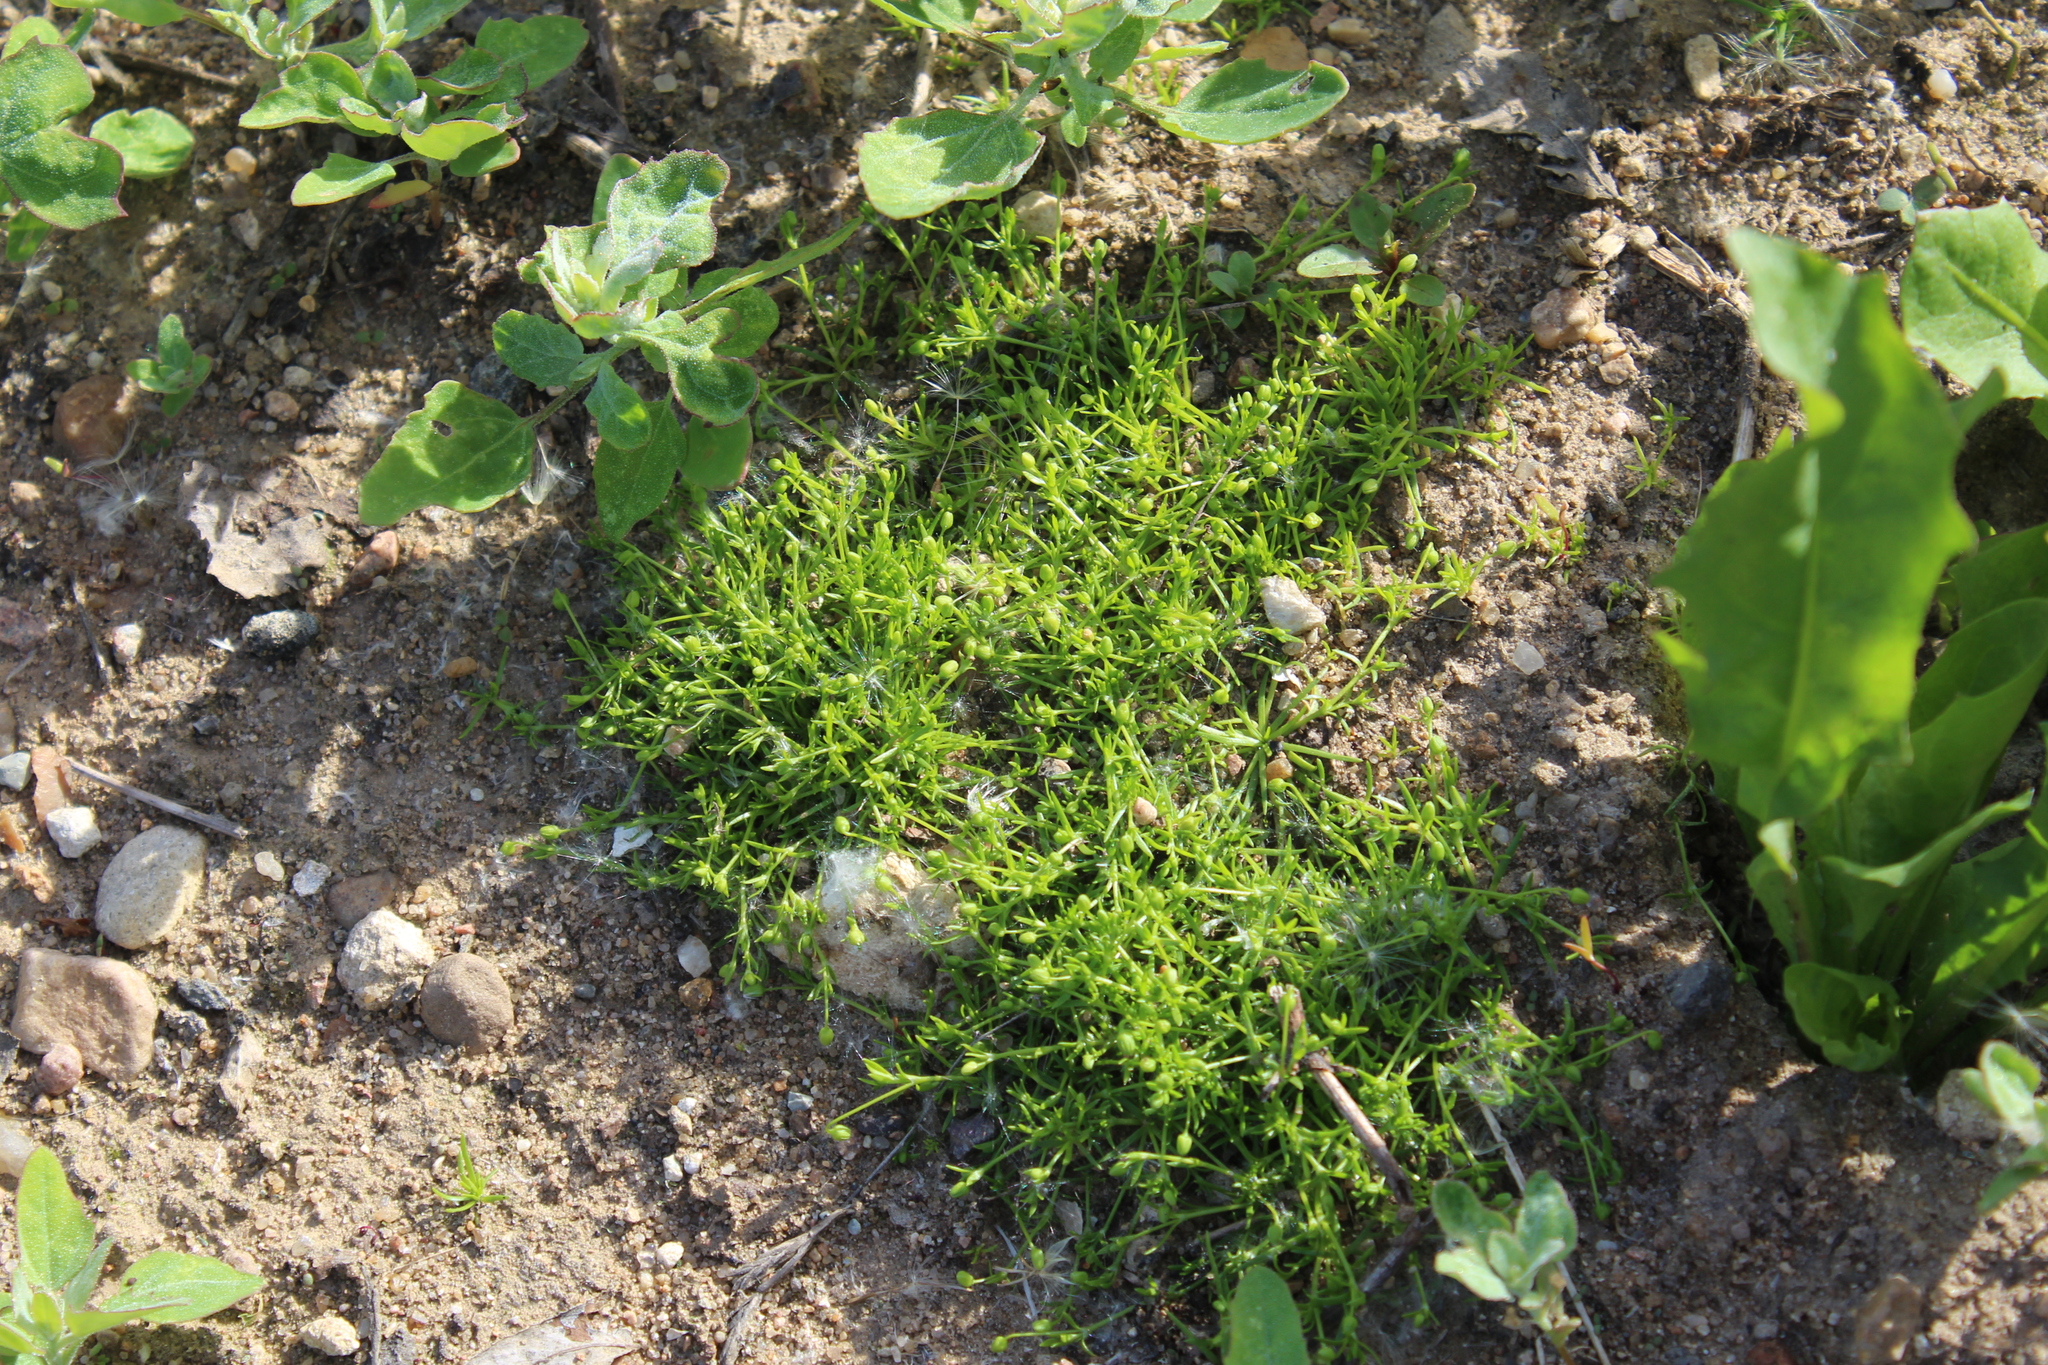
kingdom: Plantae
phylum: Tracheophyta
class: Magnoliopsida
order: Caryophyllales
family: Caryophyllaceae
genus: Sagina
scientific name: Sagina procumbens
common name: Procumbent pearlwort
